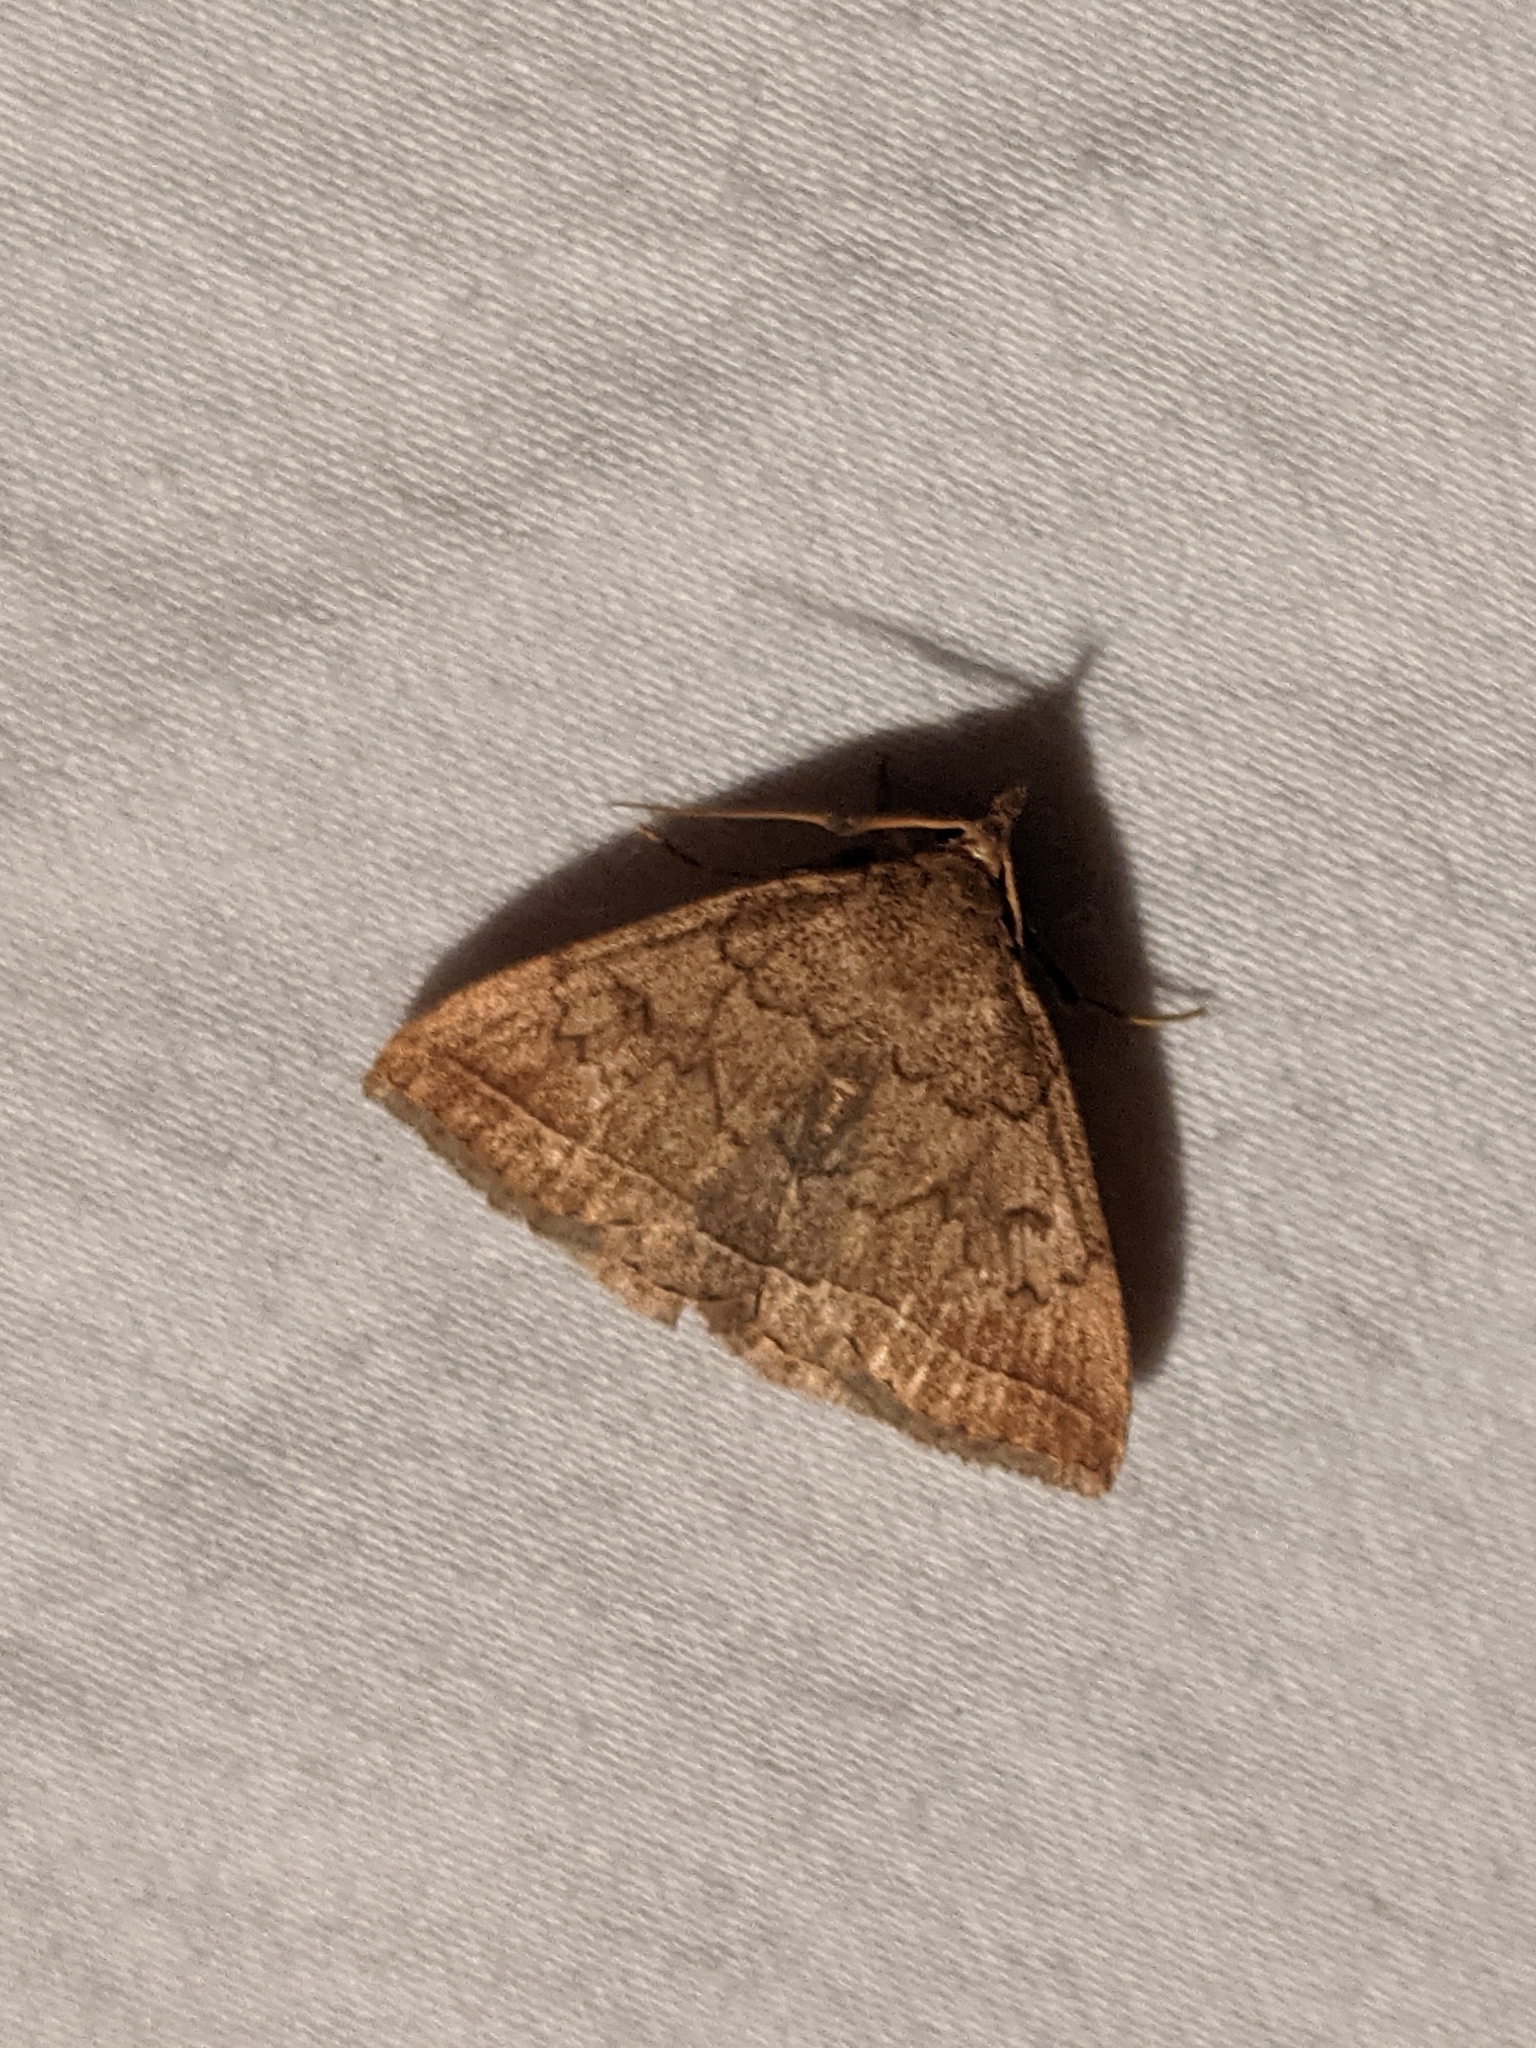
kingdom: Animalia
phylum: Arthropoda
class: Insecta
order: Lepidoptera
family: Erebidae
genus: Zanclognatha
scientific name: Zanclognatha jacchusalis
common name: Yellowish zanclognatha
